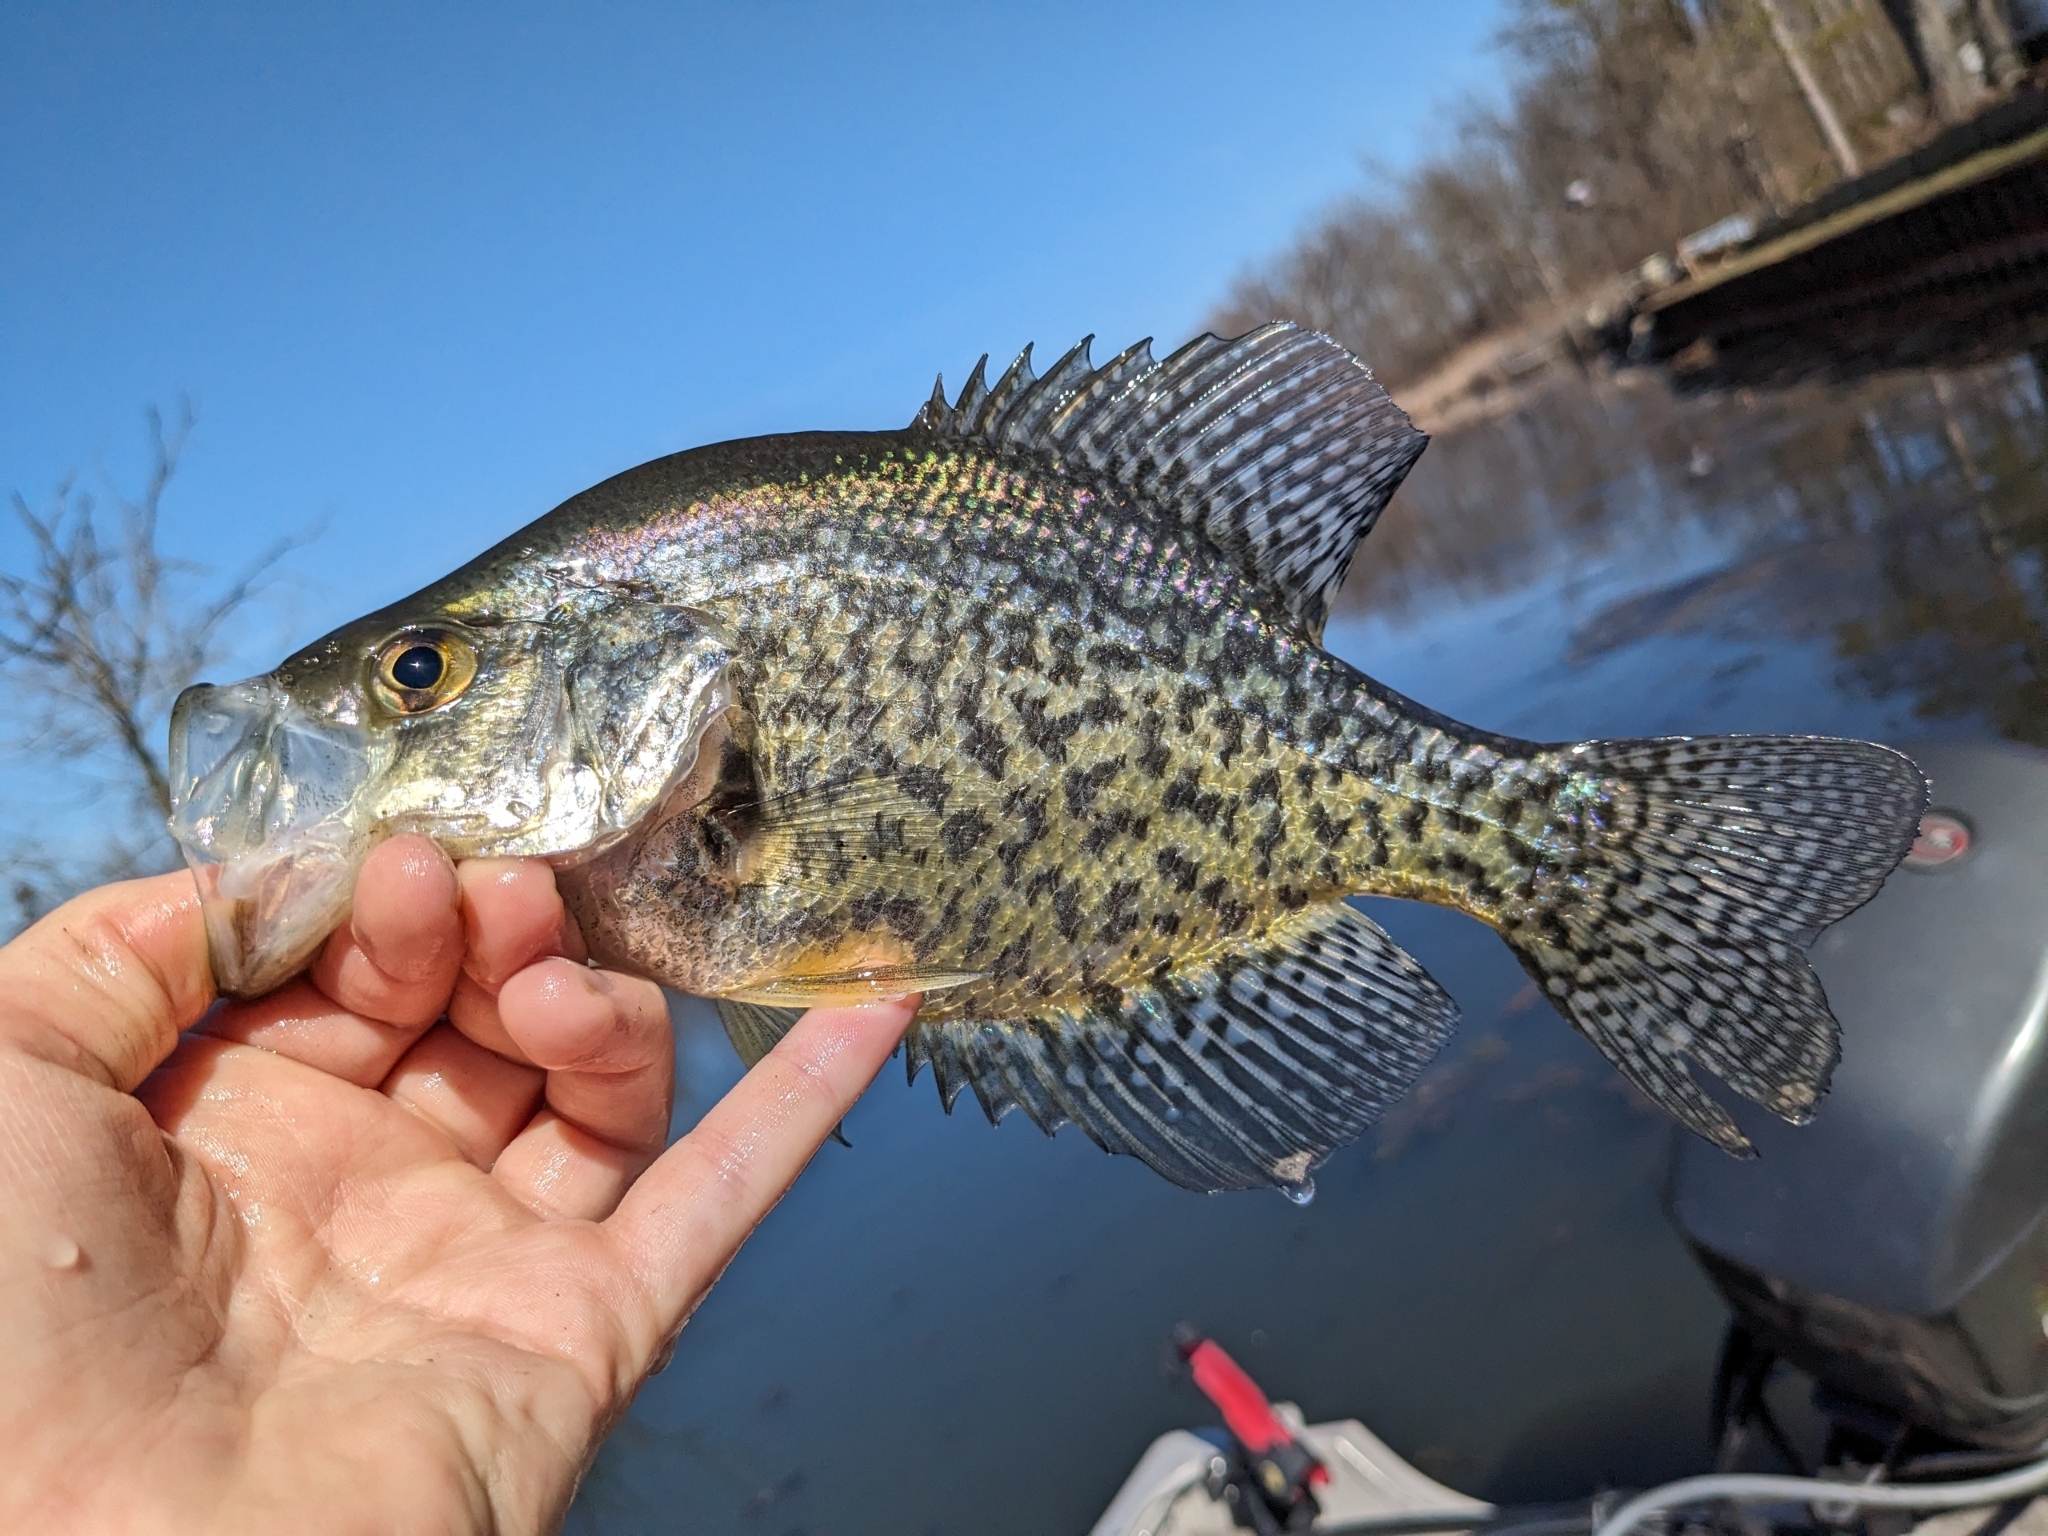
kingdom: Animalia
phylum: Chordata
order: Perciformes
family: Centrarchidae
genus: Pomoxis
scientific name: Pomoxis nigromaculatus
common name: Black crappie
